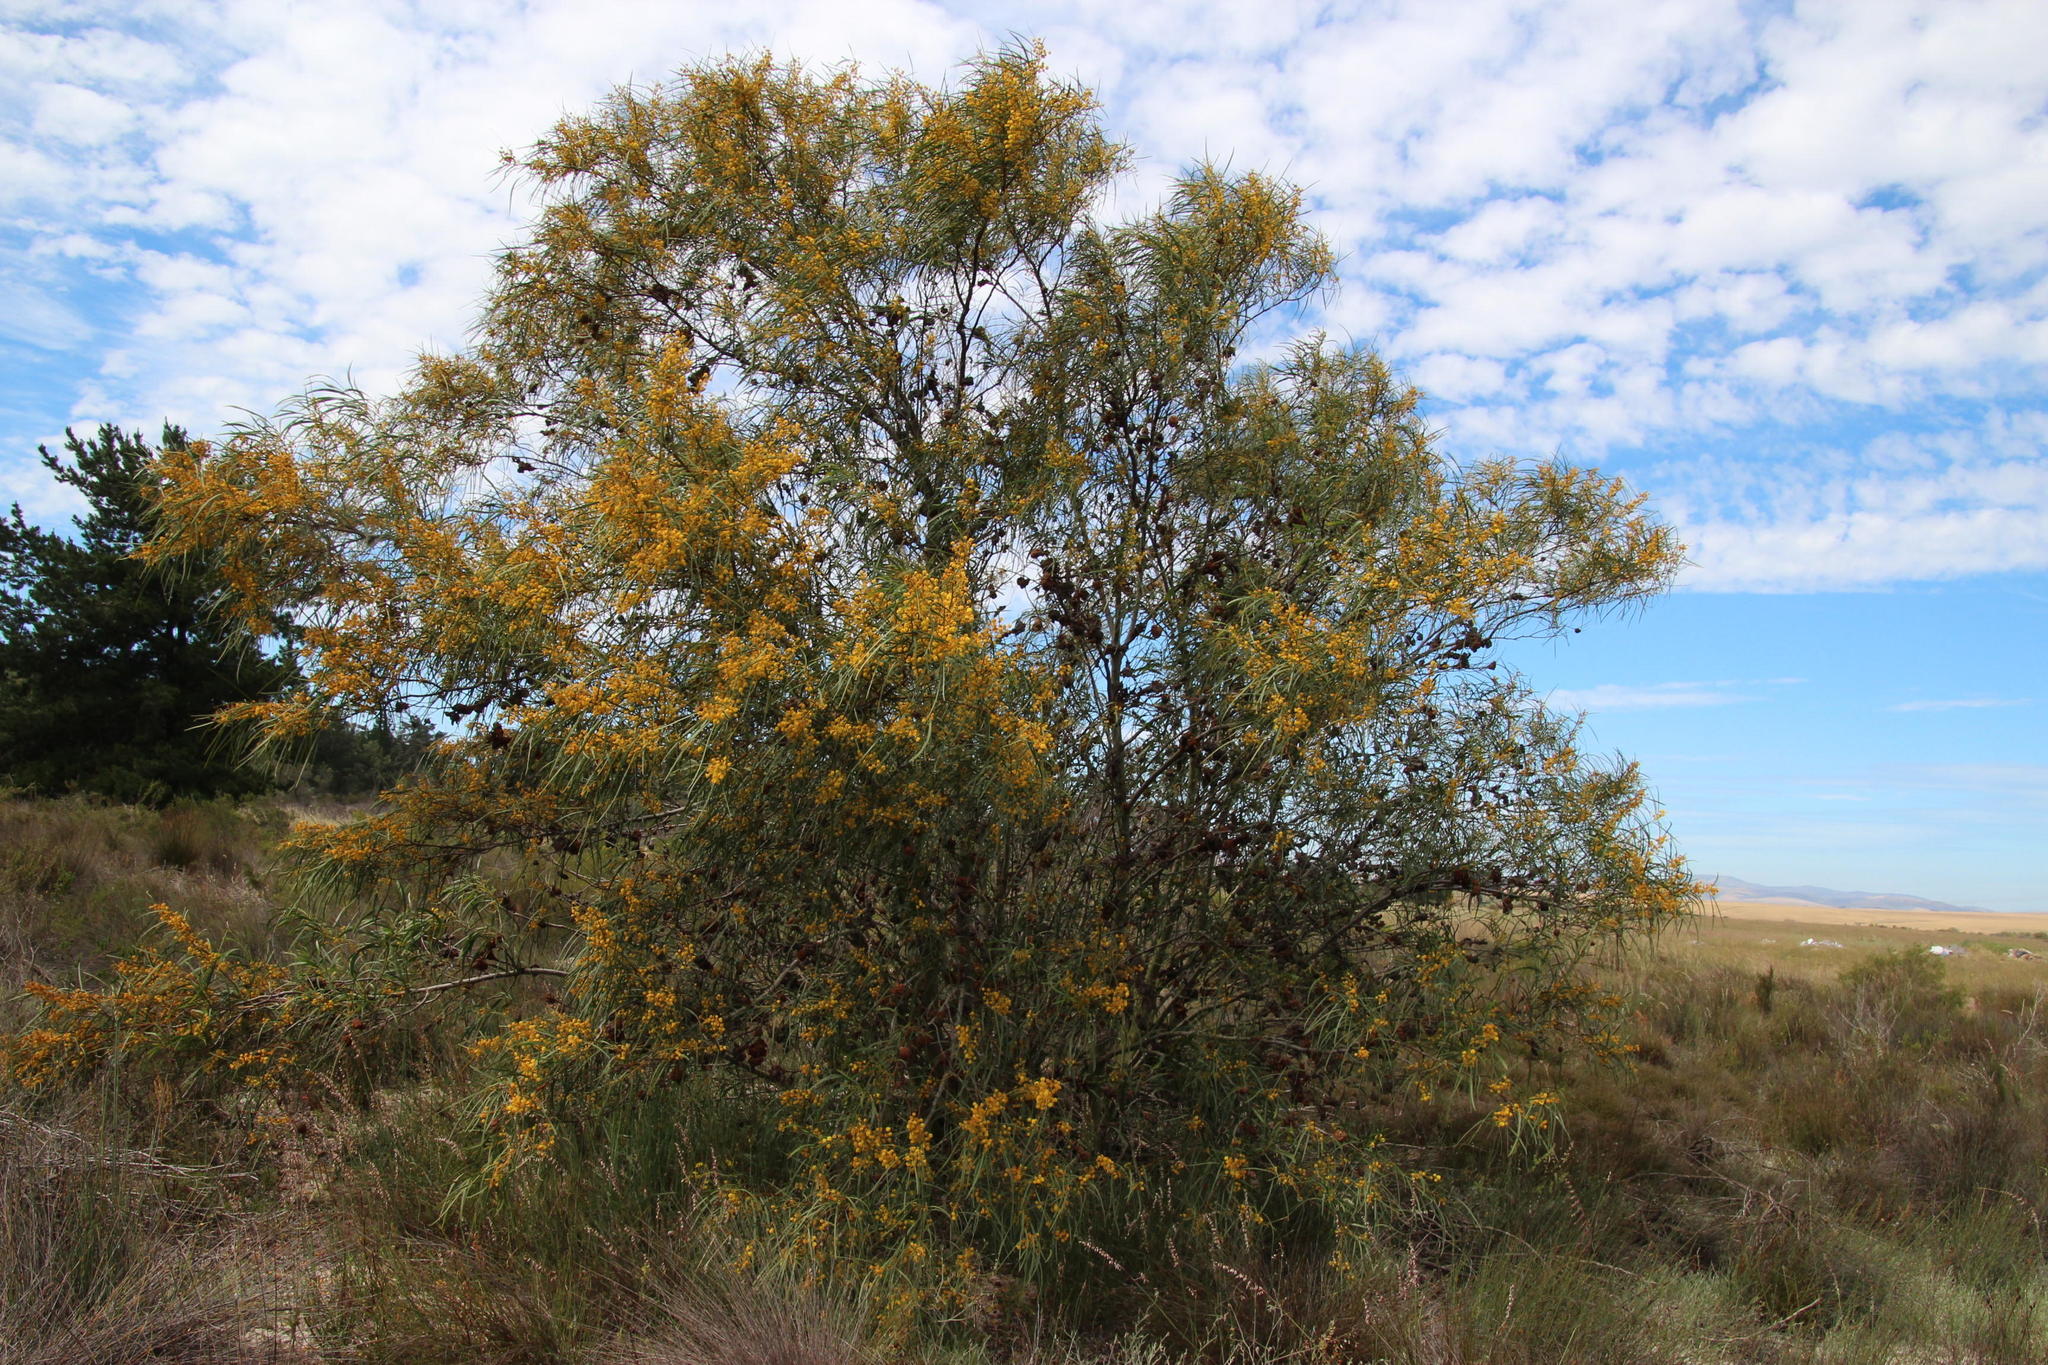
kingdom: Fungi
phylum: Basidiomycota
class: Pucciniomycetes
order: Pucciniales
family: Uromycladiaceae
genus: Uromycladium
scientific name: Uromycladium morrisii
